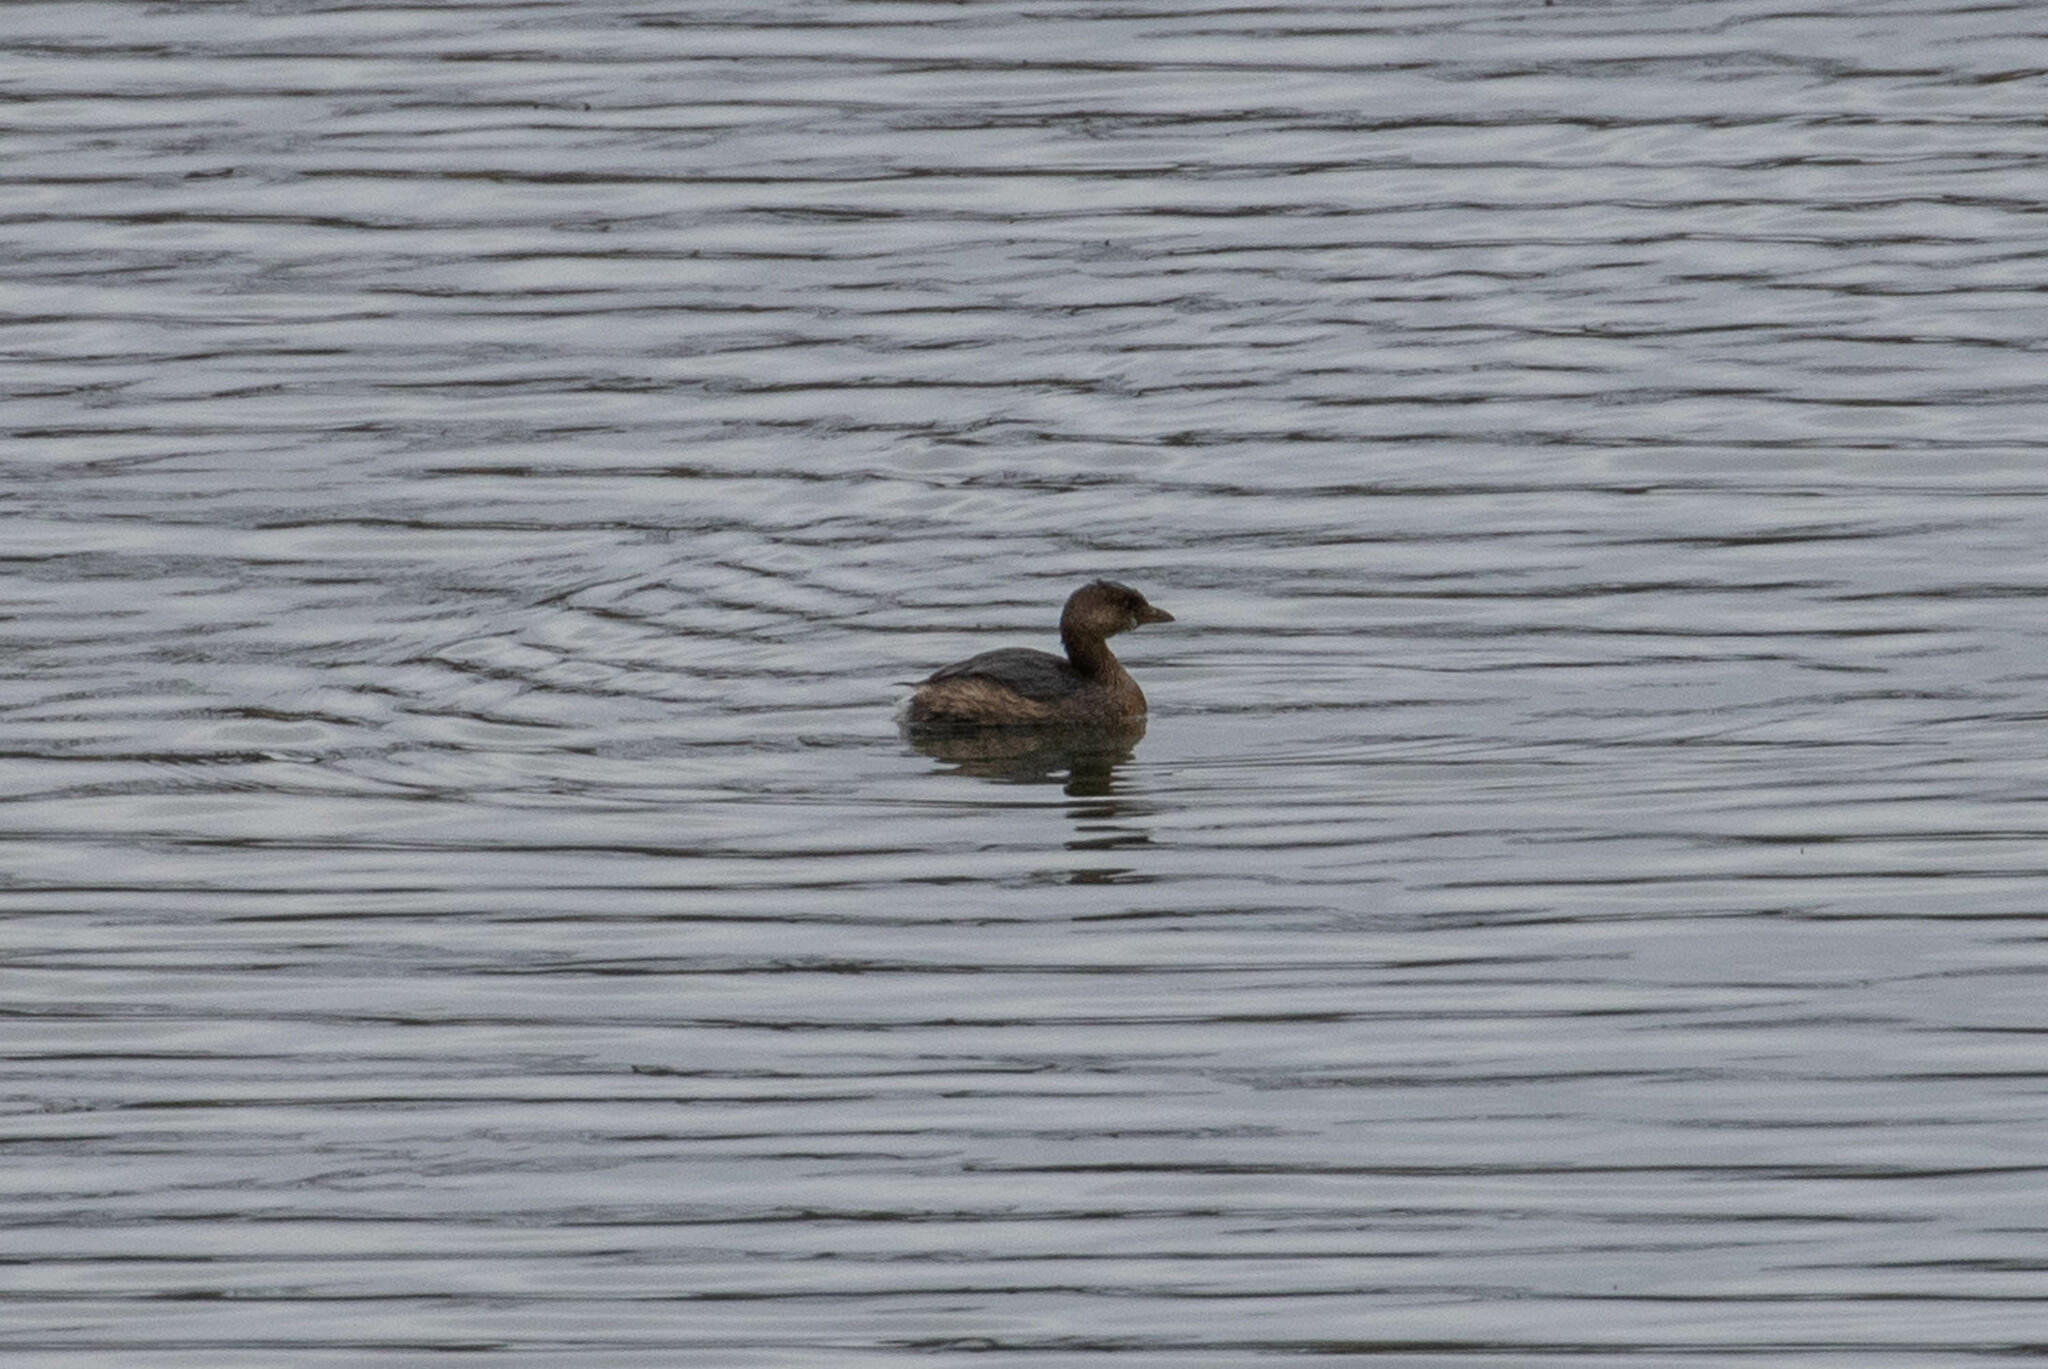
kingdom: Animalia
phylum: Chordata
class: Aves
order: Podicipediformes
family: Podicipedidae
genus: Podilymbus
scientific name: Podilymbus podiceps
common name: Pied-billed grebe
